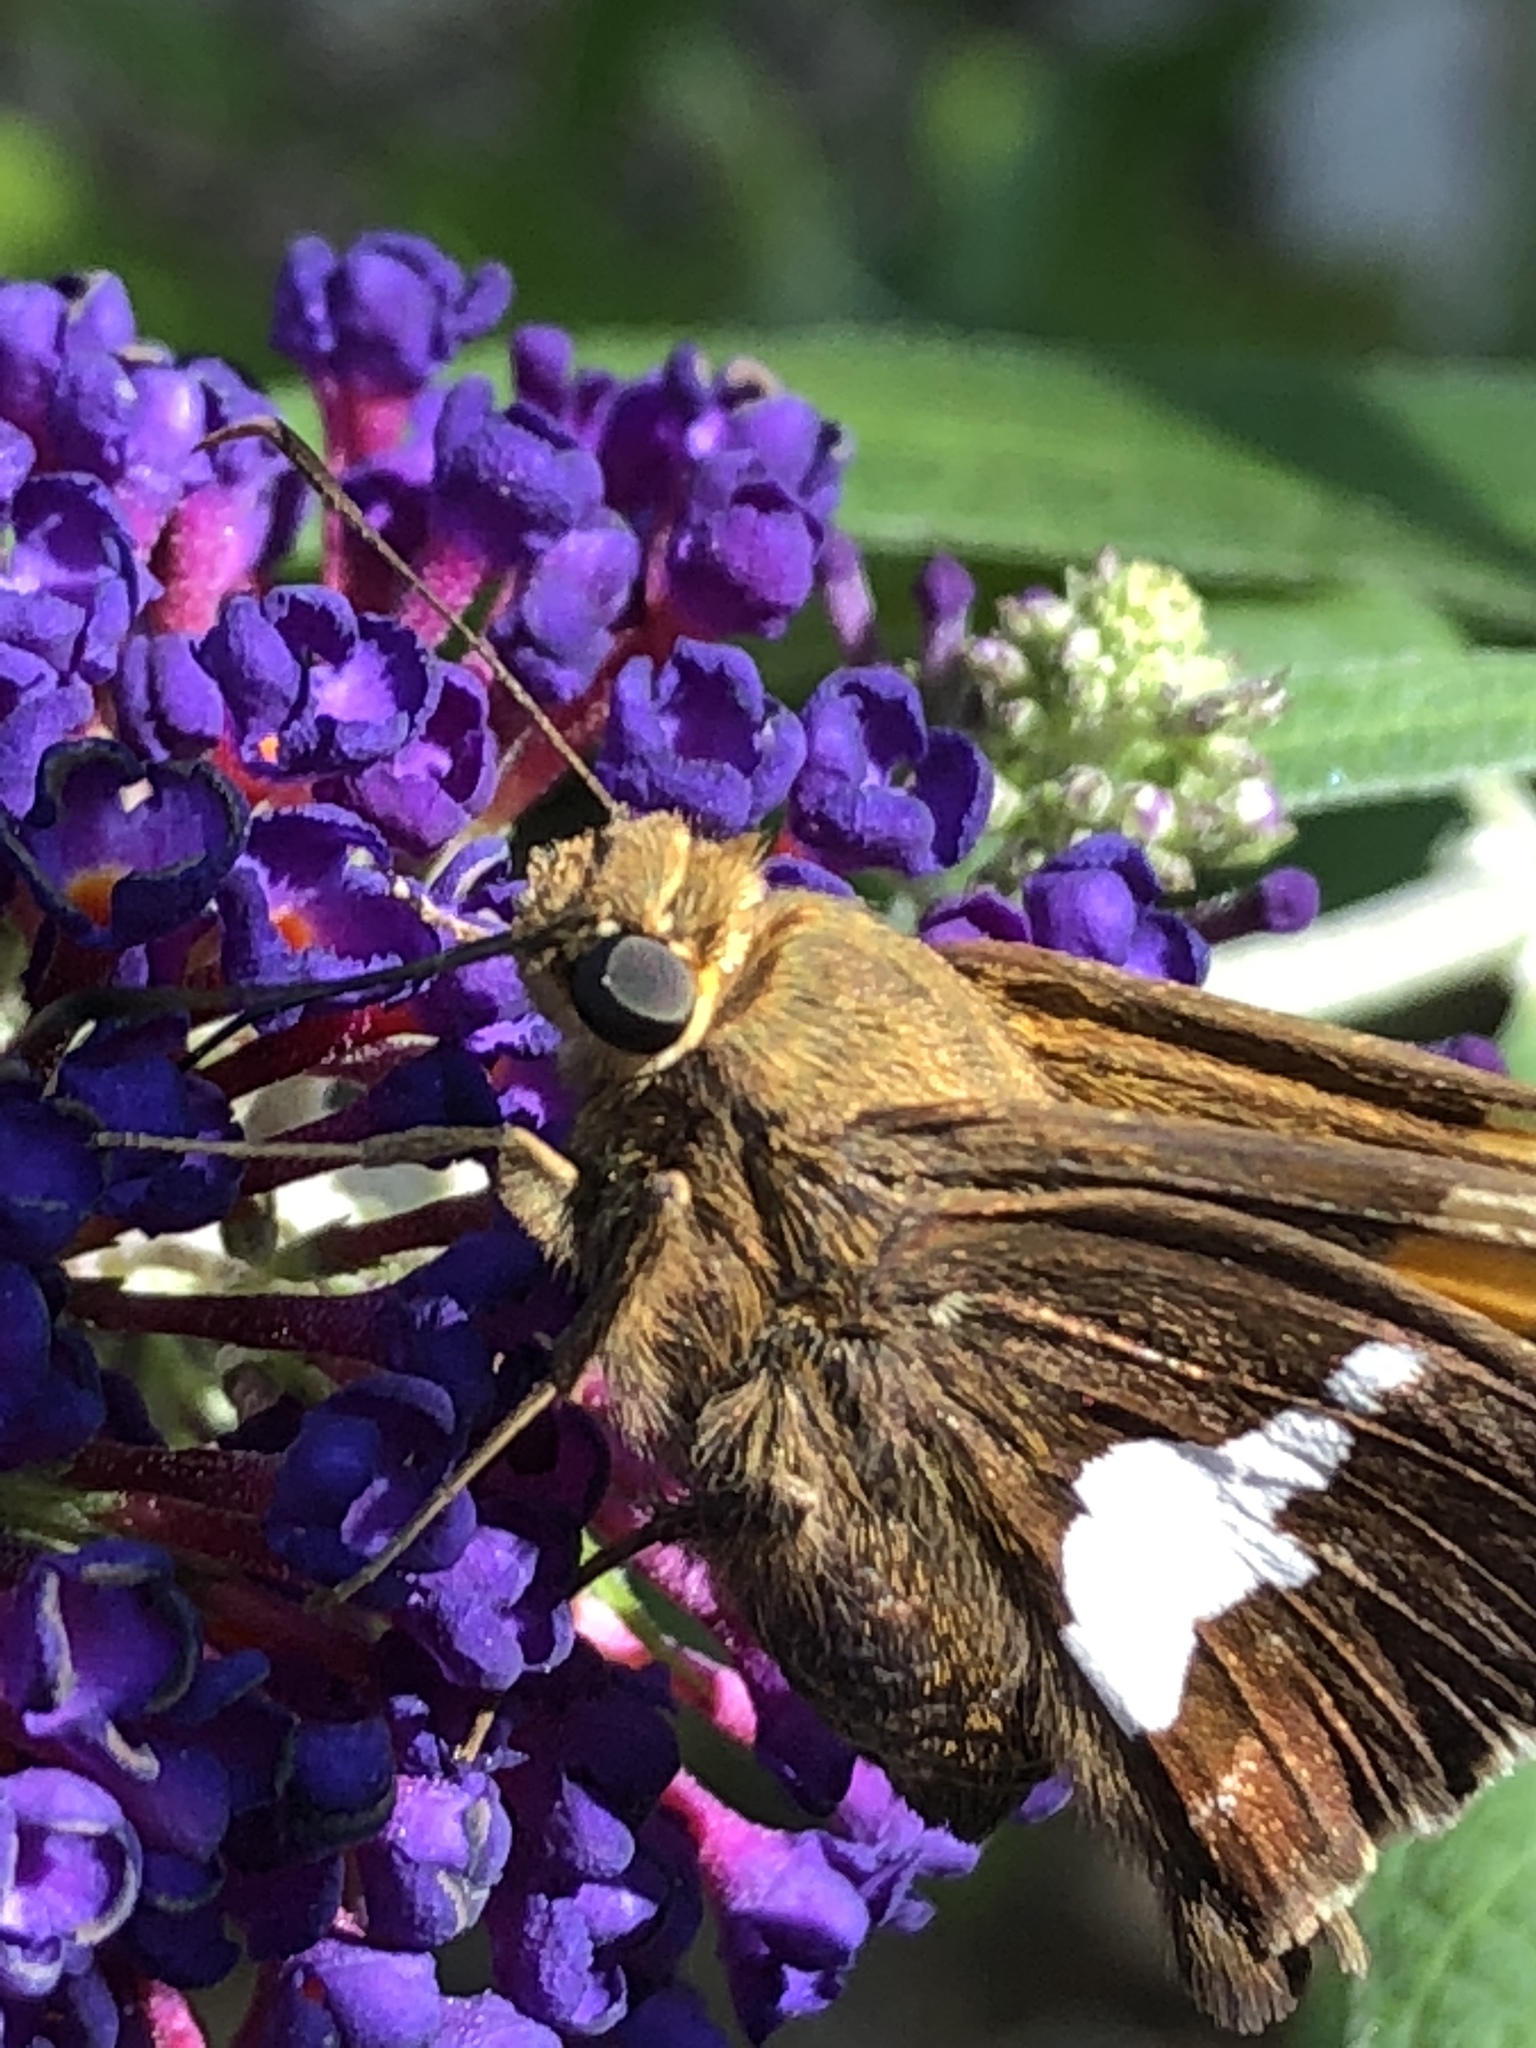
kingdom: Animalia
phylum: Arthropoda
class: Insecta
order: Lepidoptera
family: Hesperiidae
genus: Epargyreus
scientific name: Epargyreus clarus
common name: Silver-spotted skipper
